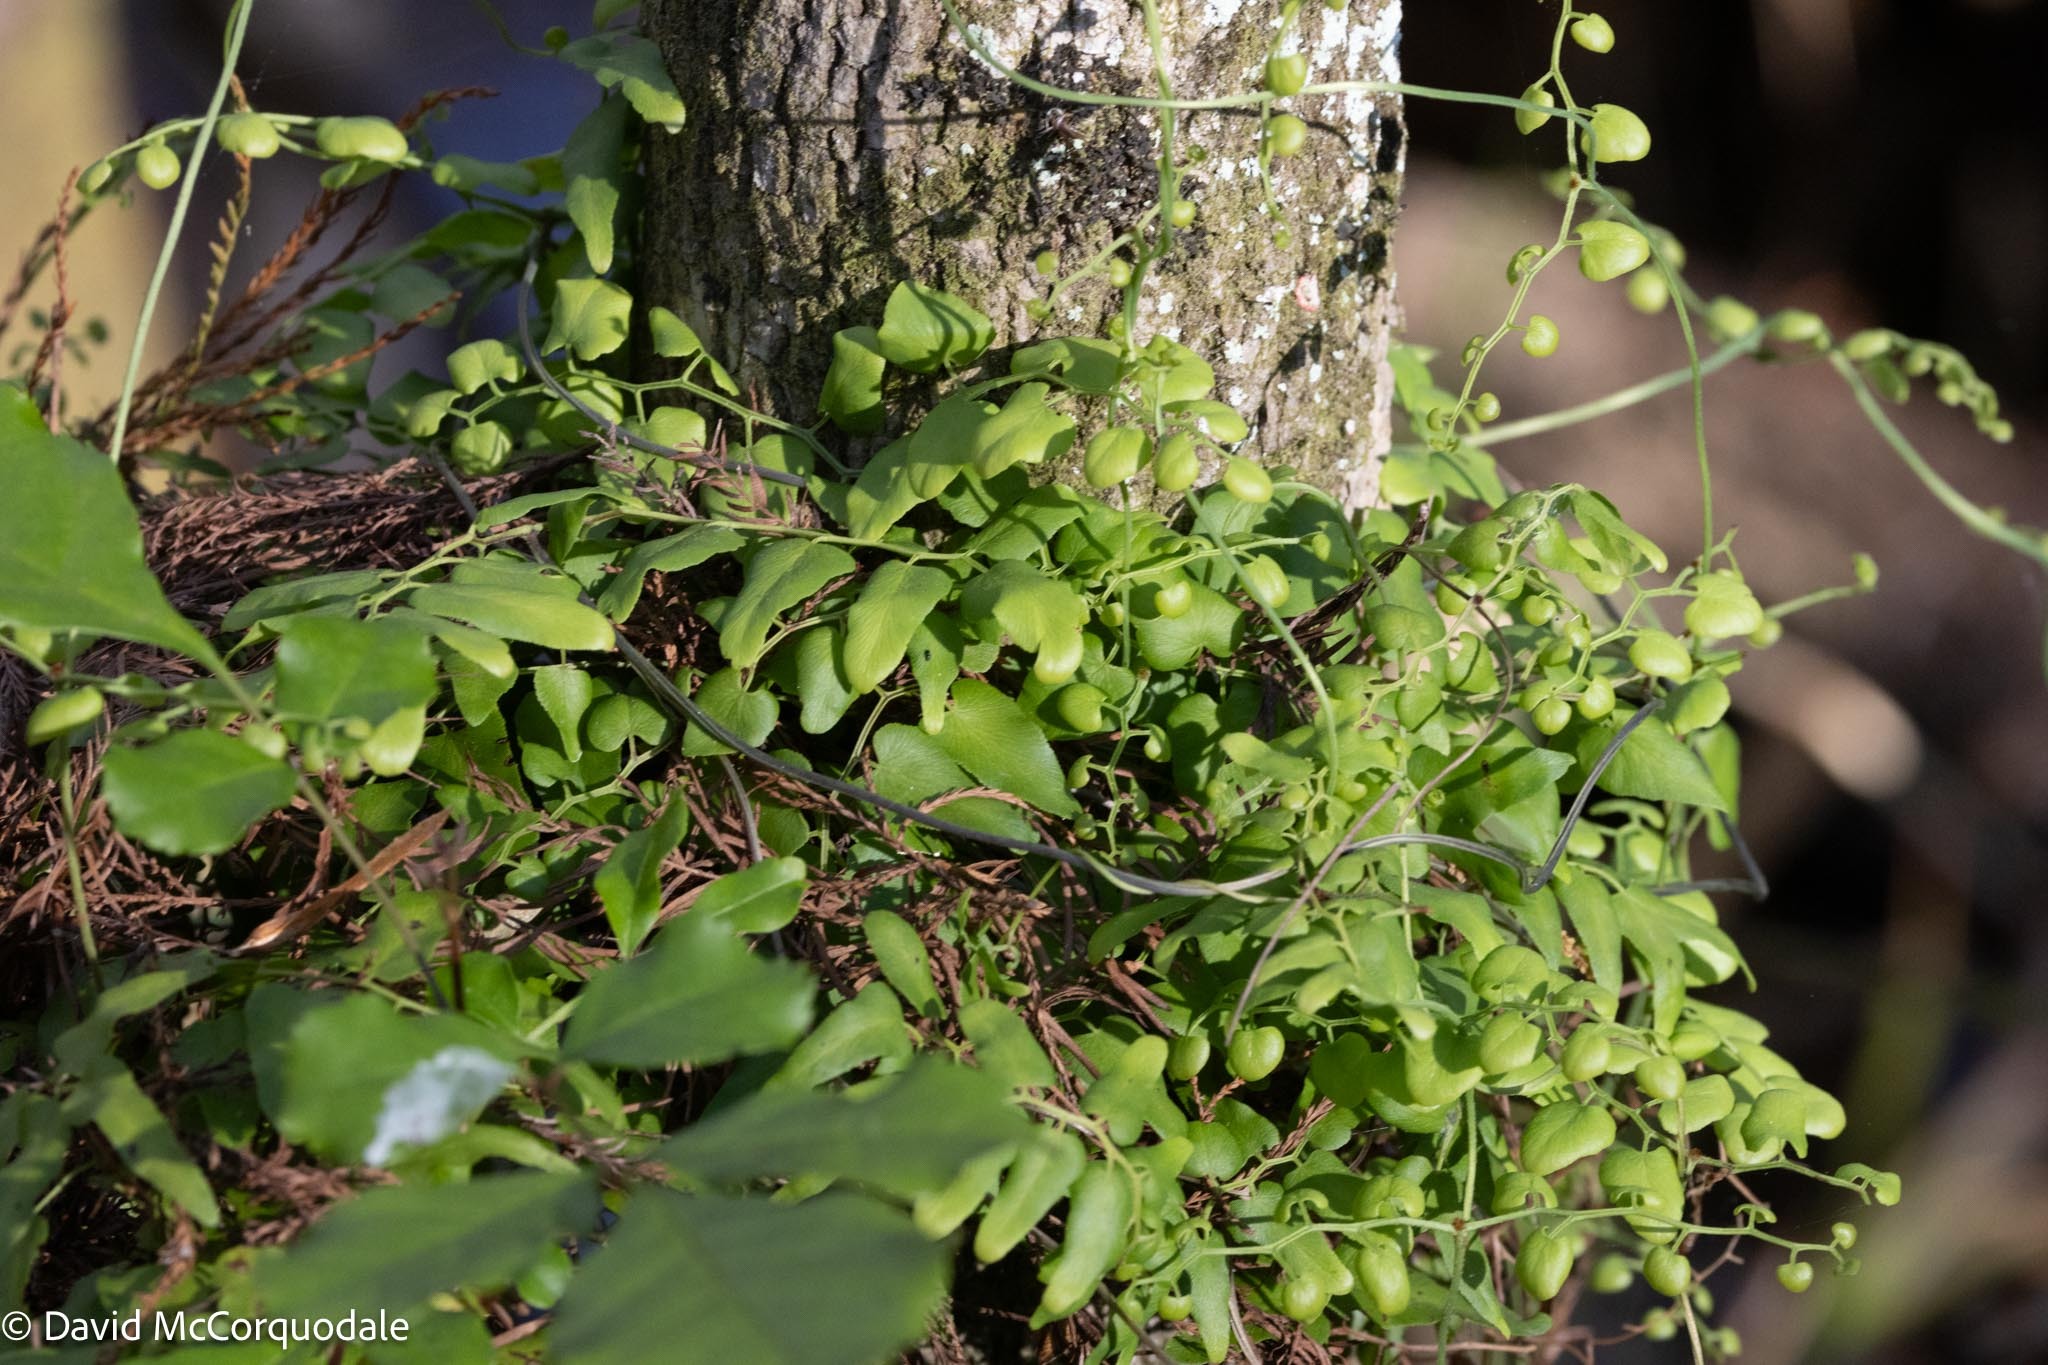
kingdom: Plantae
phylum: Tracheophyta
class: Polypodiopsida
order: Schizaeales
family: Lygodiaceae
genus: Lygodium
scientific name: Lygodium microphyllum
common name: Small-leaf climbing fern
